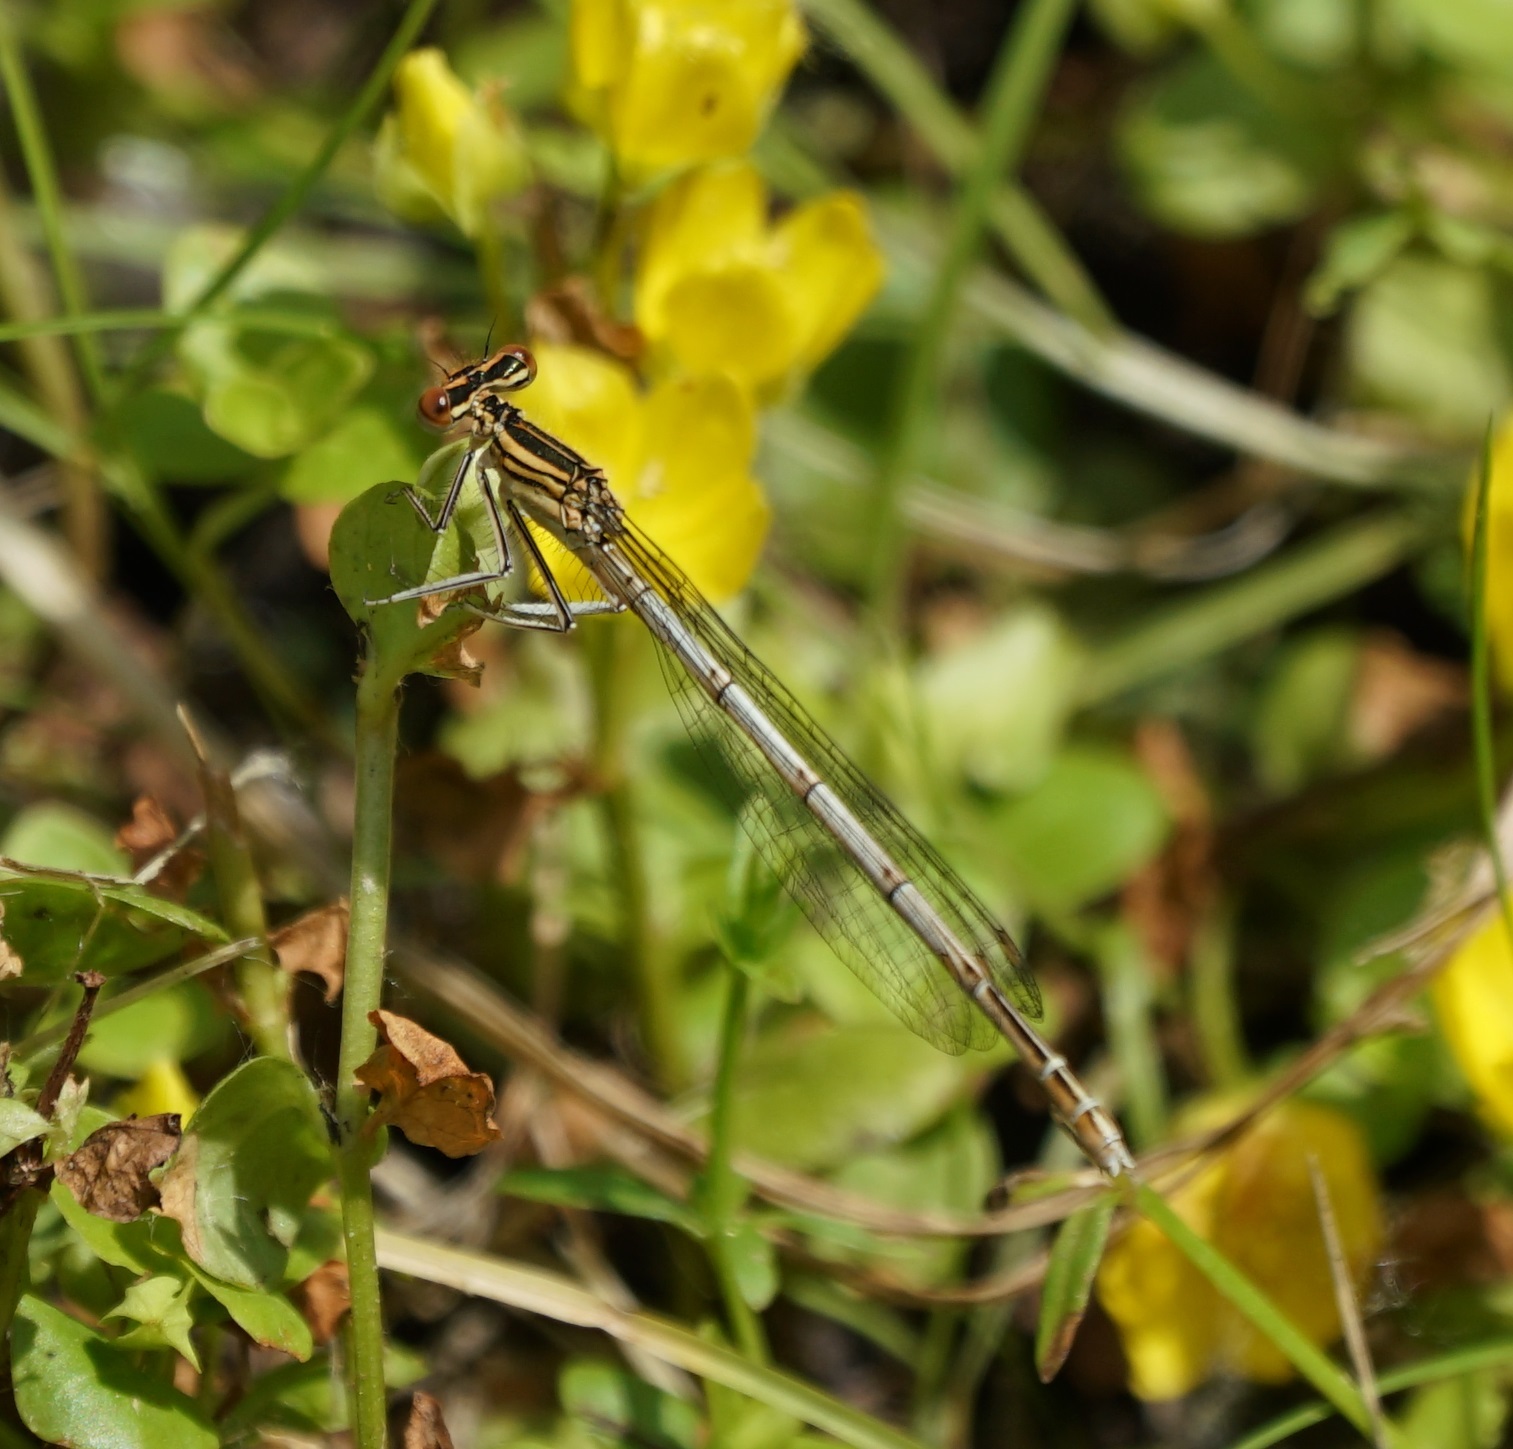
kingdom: Animalia
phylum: Arthropoda
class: Insecta
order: Odonata
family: Platycnemididae
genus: Platycnemis
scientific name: Platycnemis pennipes
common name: White-legged damselfly
